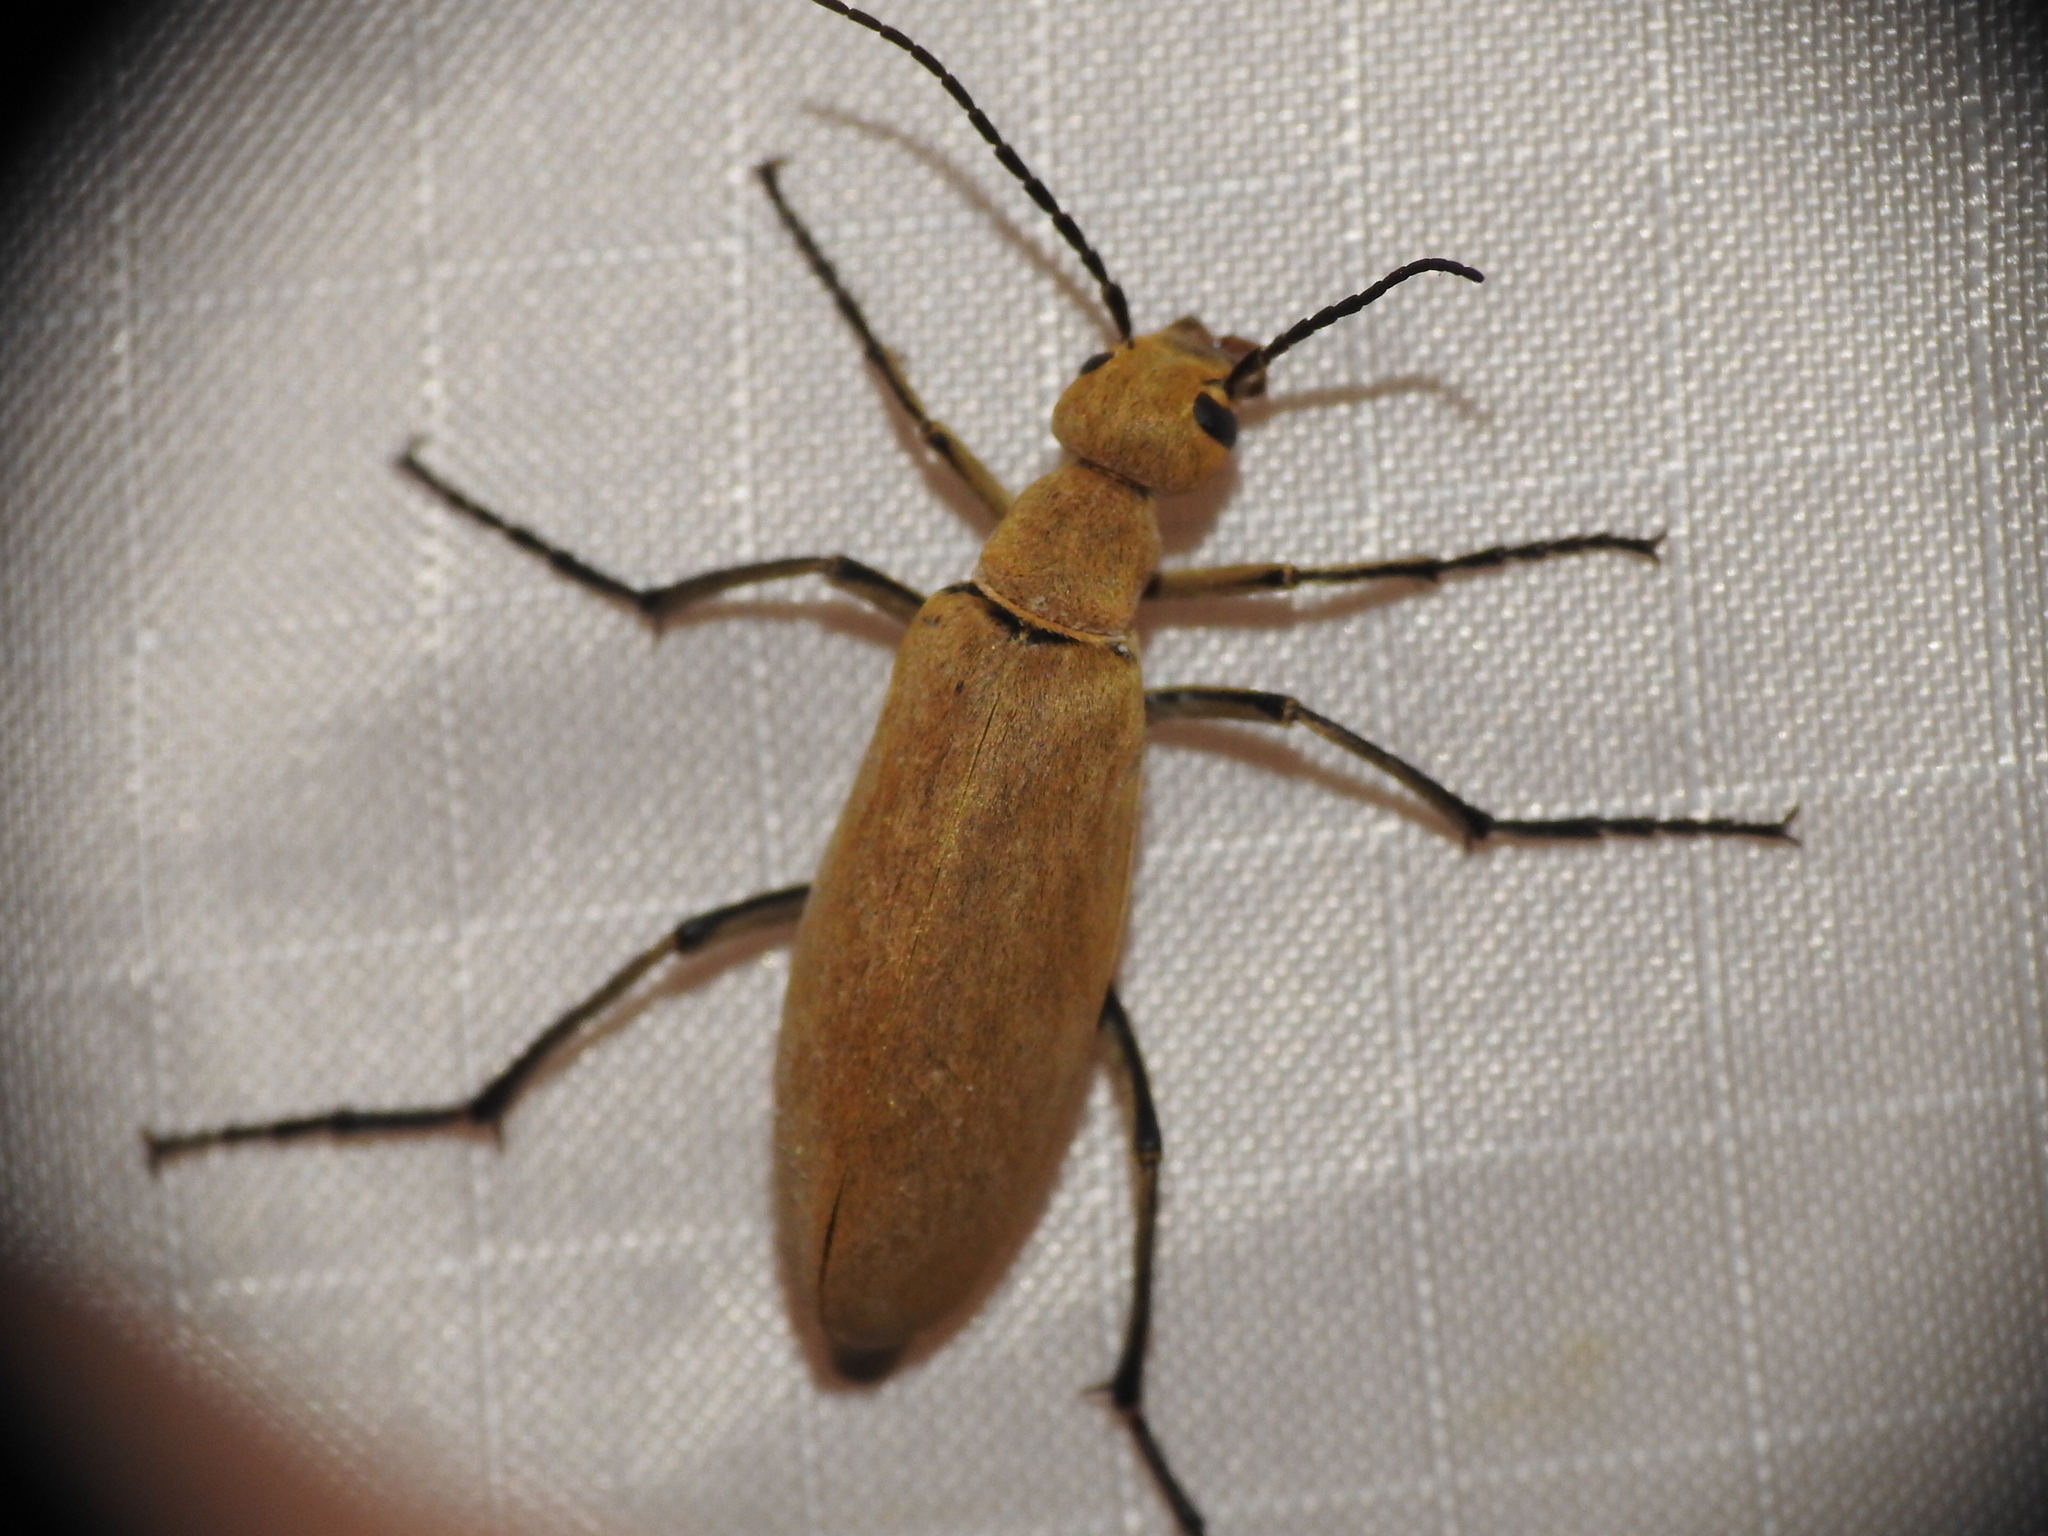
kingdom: Animalia
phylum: Arthropoda
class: Insecta
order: Coleoptera
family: Meloidae
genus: Epicauta
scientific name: Epicauta immaculata
